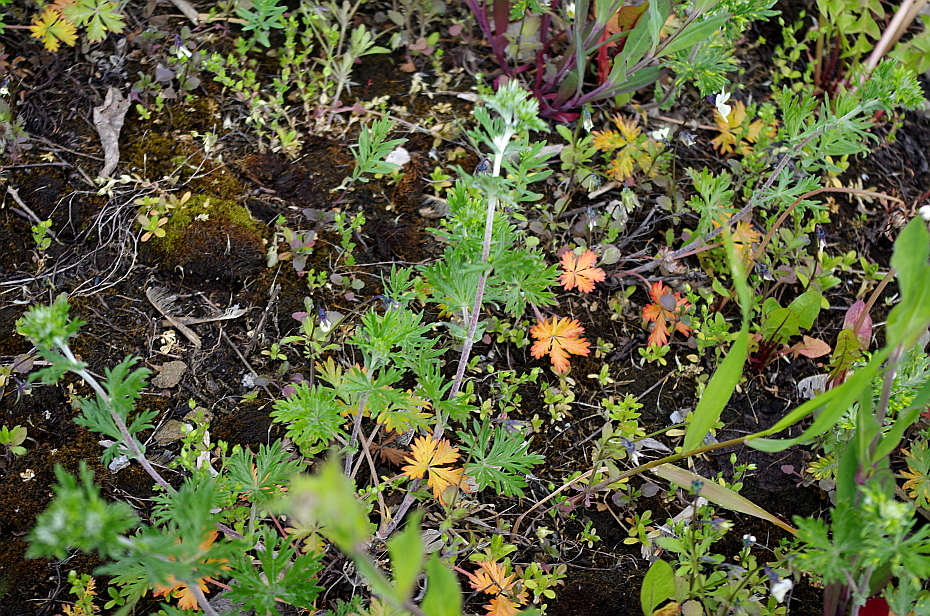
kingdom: Plantae
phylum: Tracheophyta
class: Magnoliopsida
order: Rosales
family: Rosaceae
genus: Potentilla
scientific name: Potentilla argentea
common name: Hoary cinquefoil
